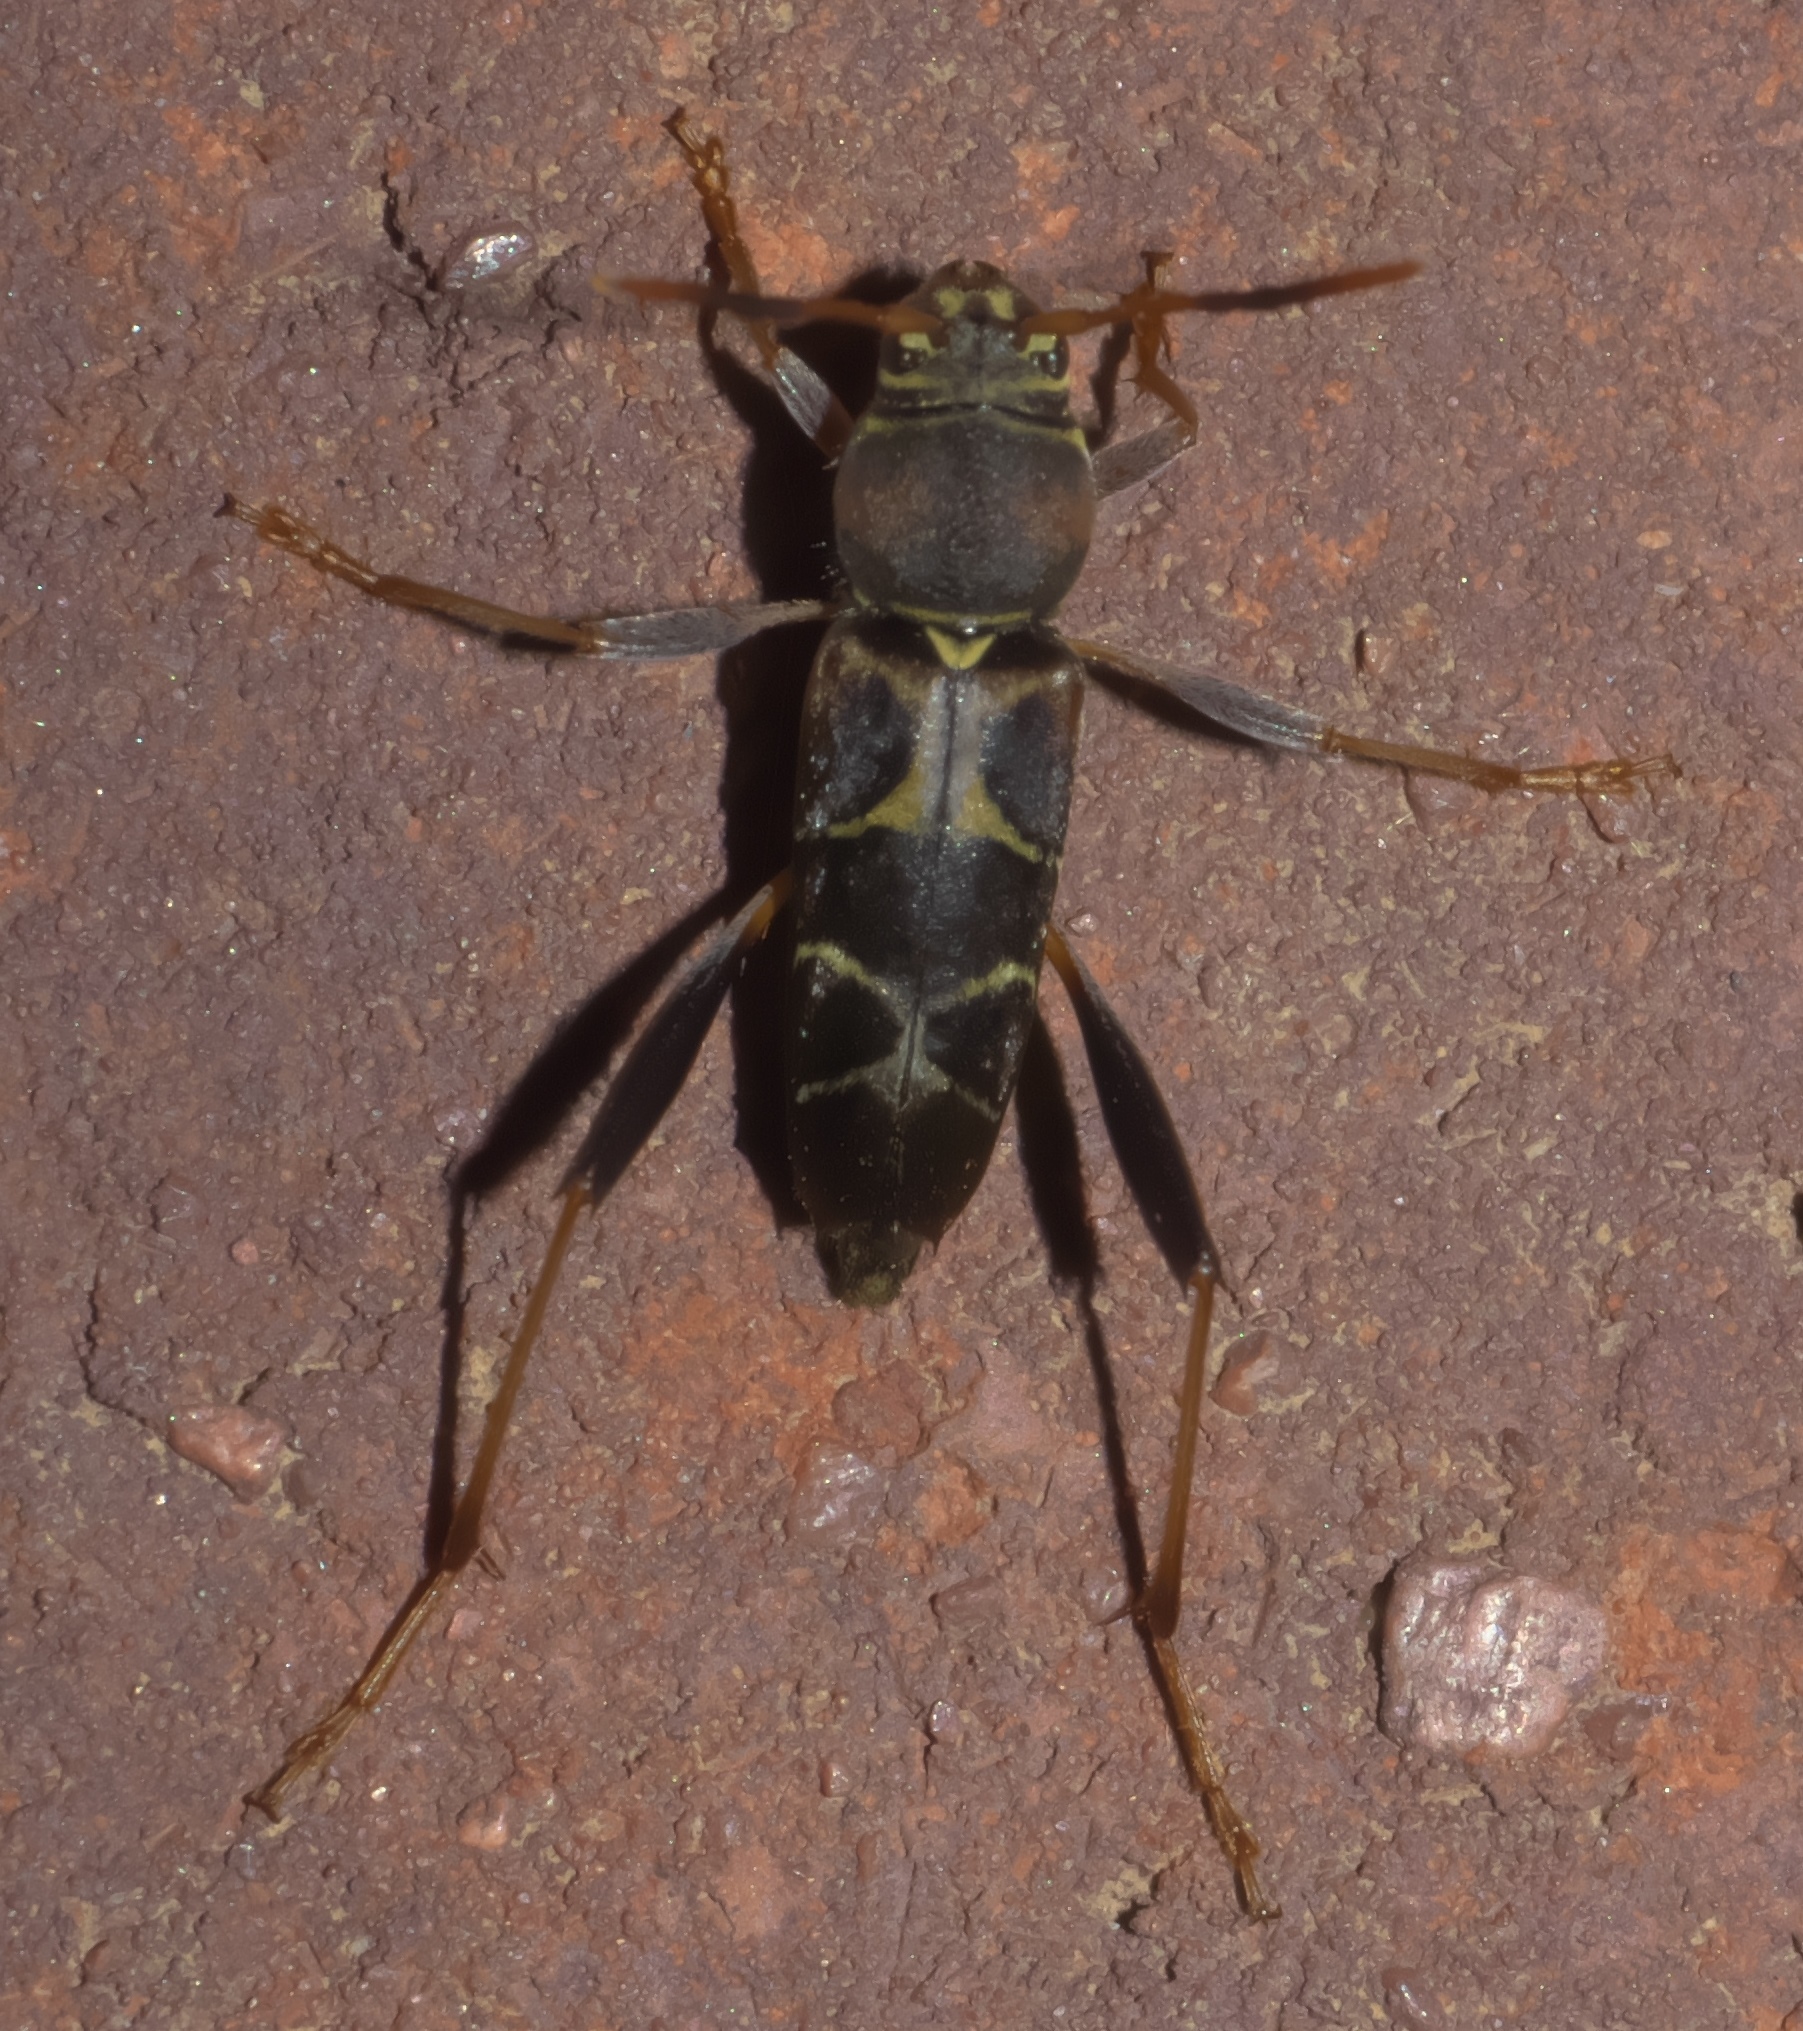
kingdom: Animalia
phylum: Arthropoda
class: Insecta
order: Coleoptera
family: Cerambycidae
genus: Neoclytus
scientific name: Neoclytus mucronatus
